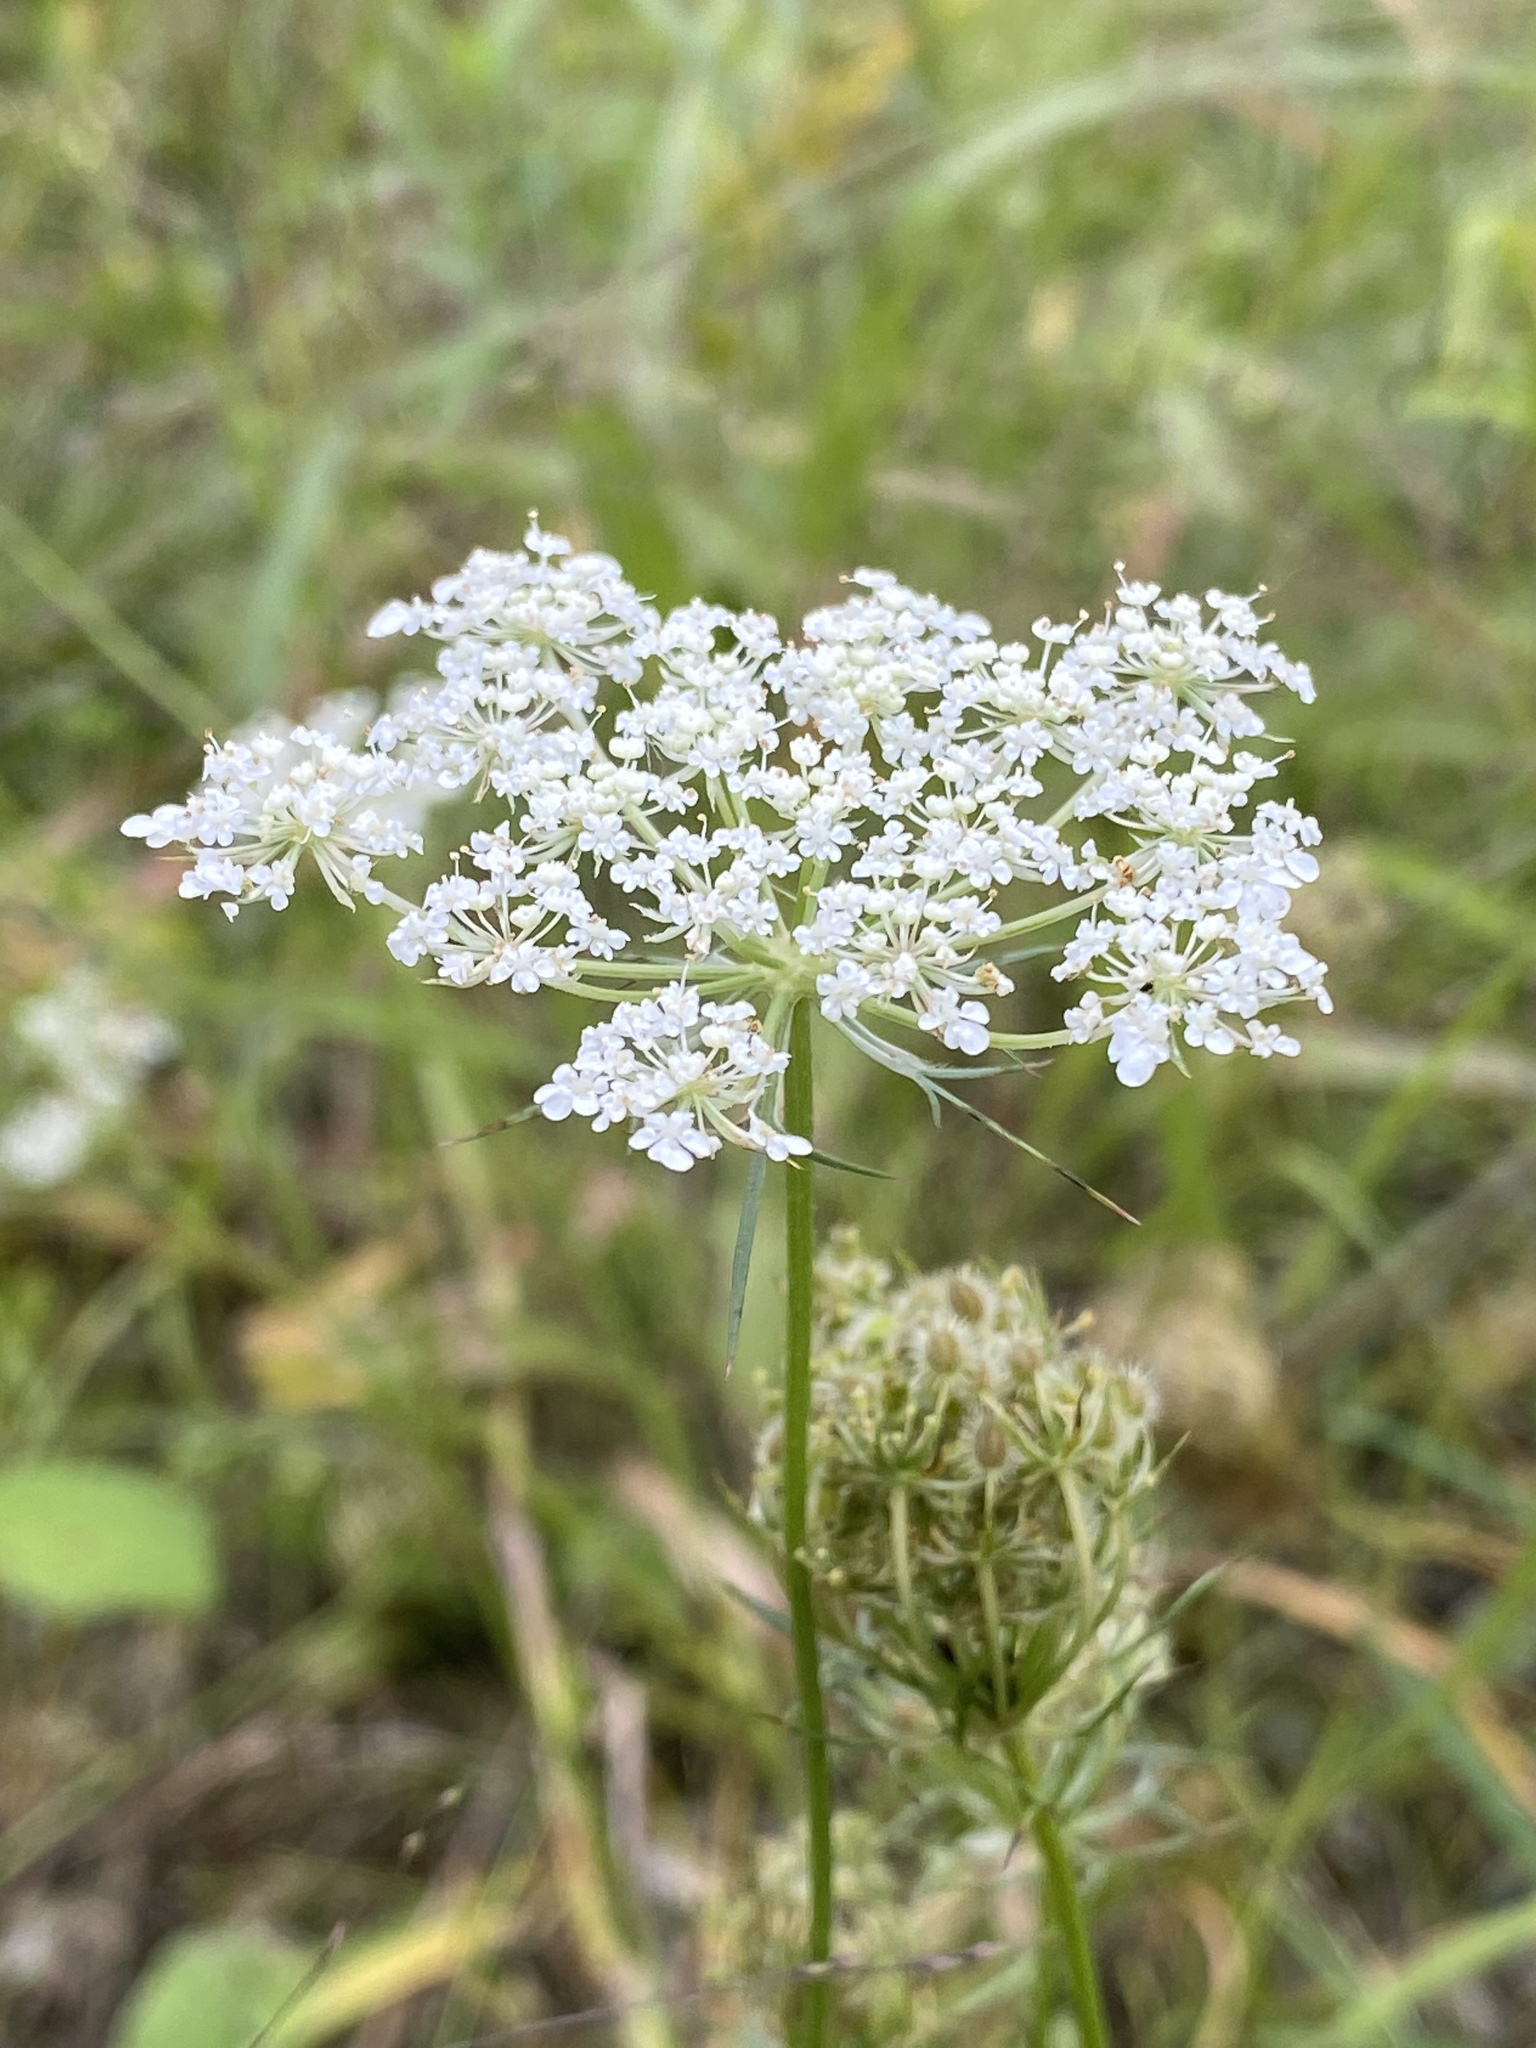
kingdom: Plantae
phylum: Tracheophyta
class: Magnoliopsida
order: Apiales
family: Apiaceae
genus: Daucus
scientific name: Daucus carota
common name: Wild carrot
